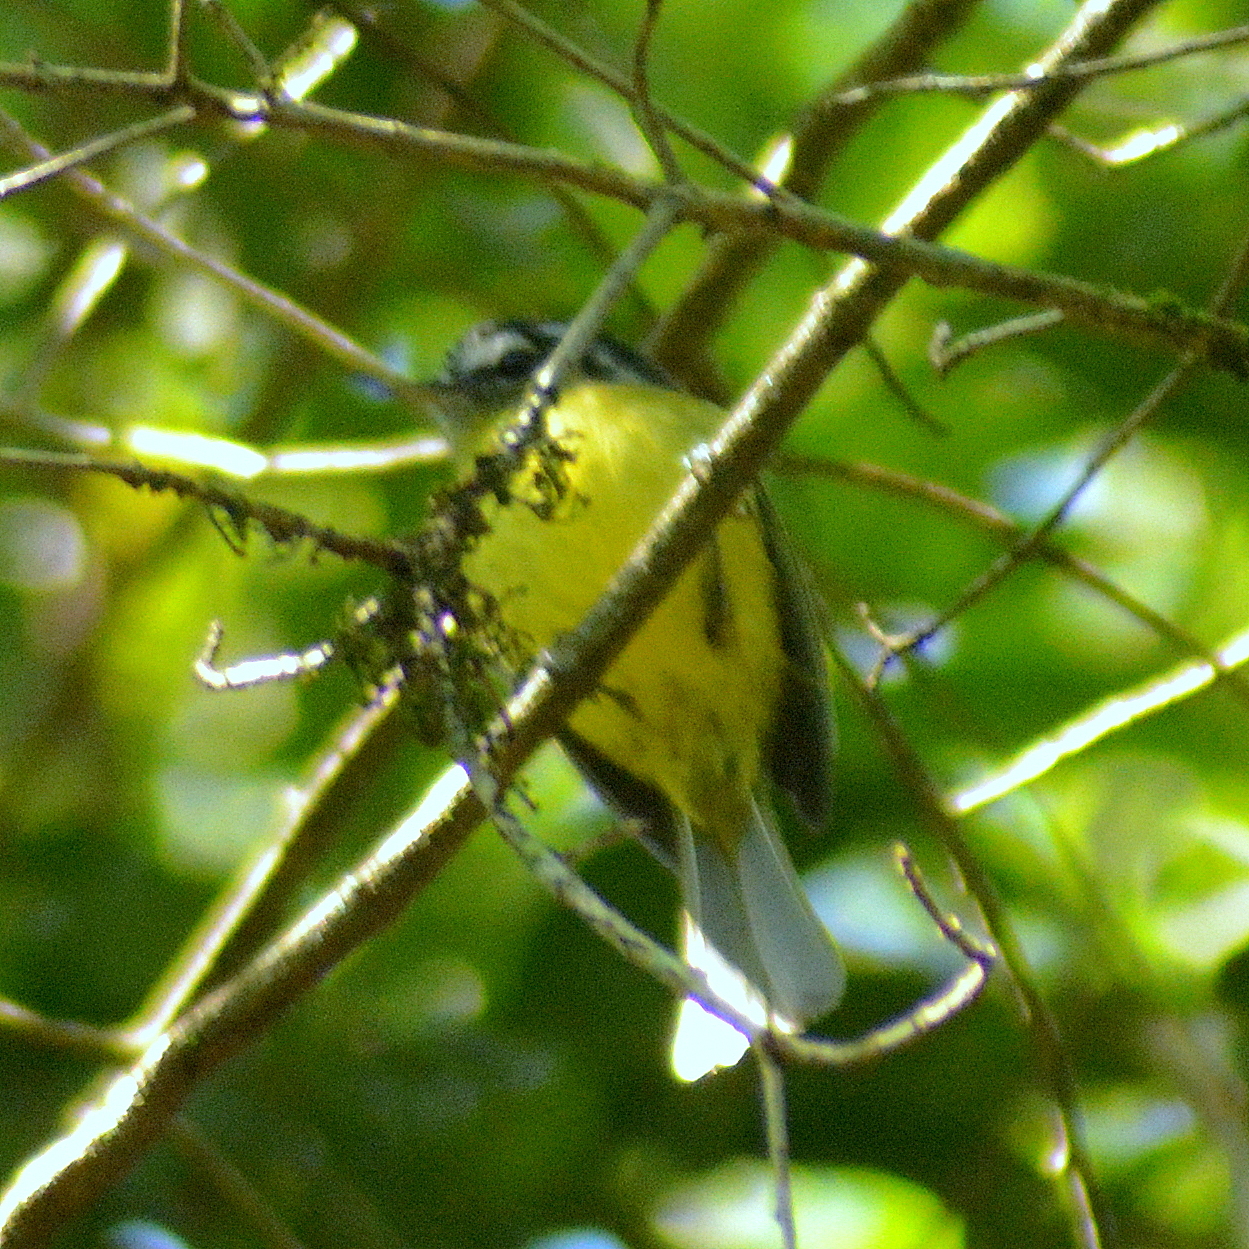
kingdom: Animalia
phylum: Chordata
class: Aves
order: Passeriformes
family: Tyrannidae
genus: Phylloscartes
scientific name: Phylloscartes eximius
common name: Southern bristle-tyrant
